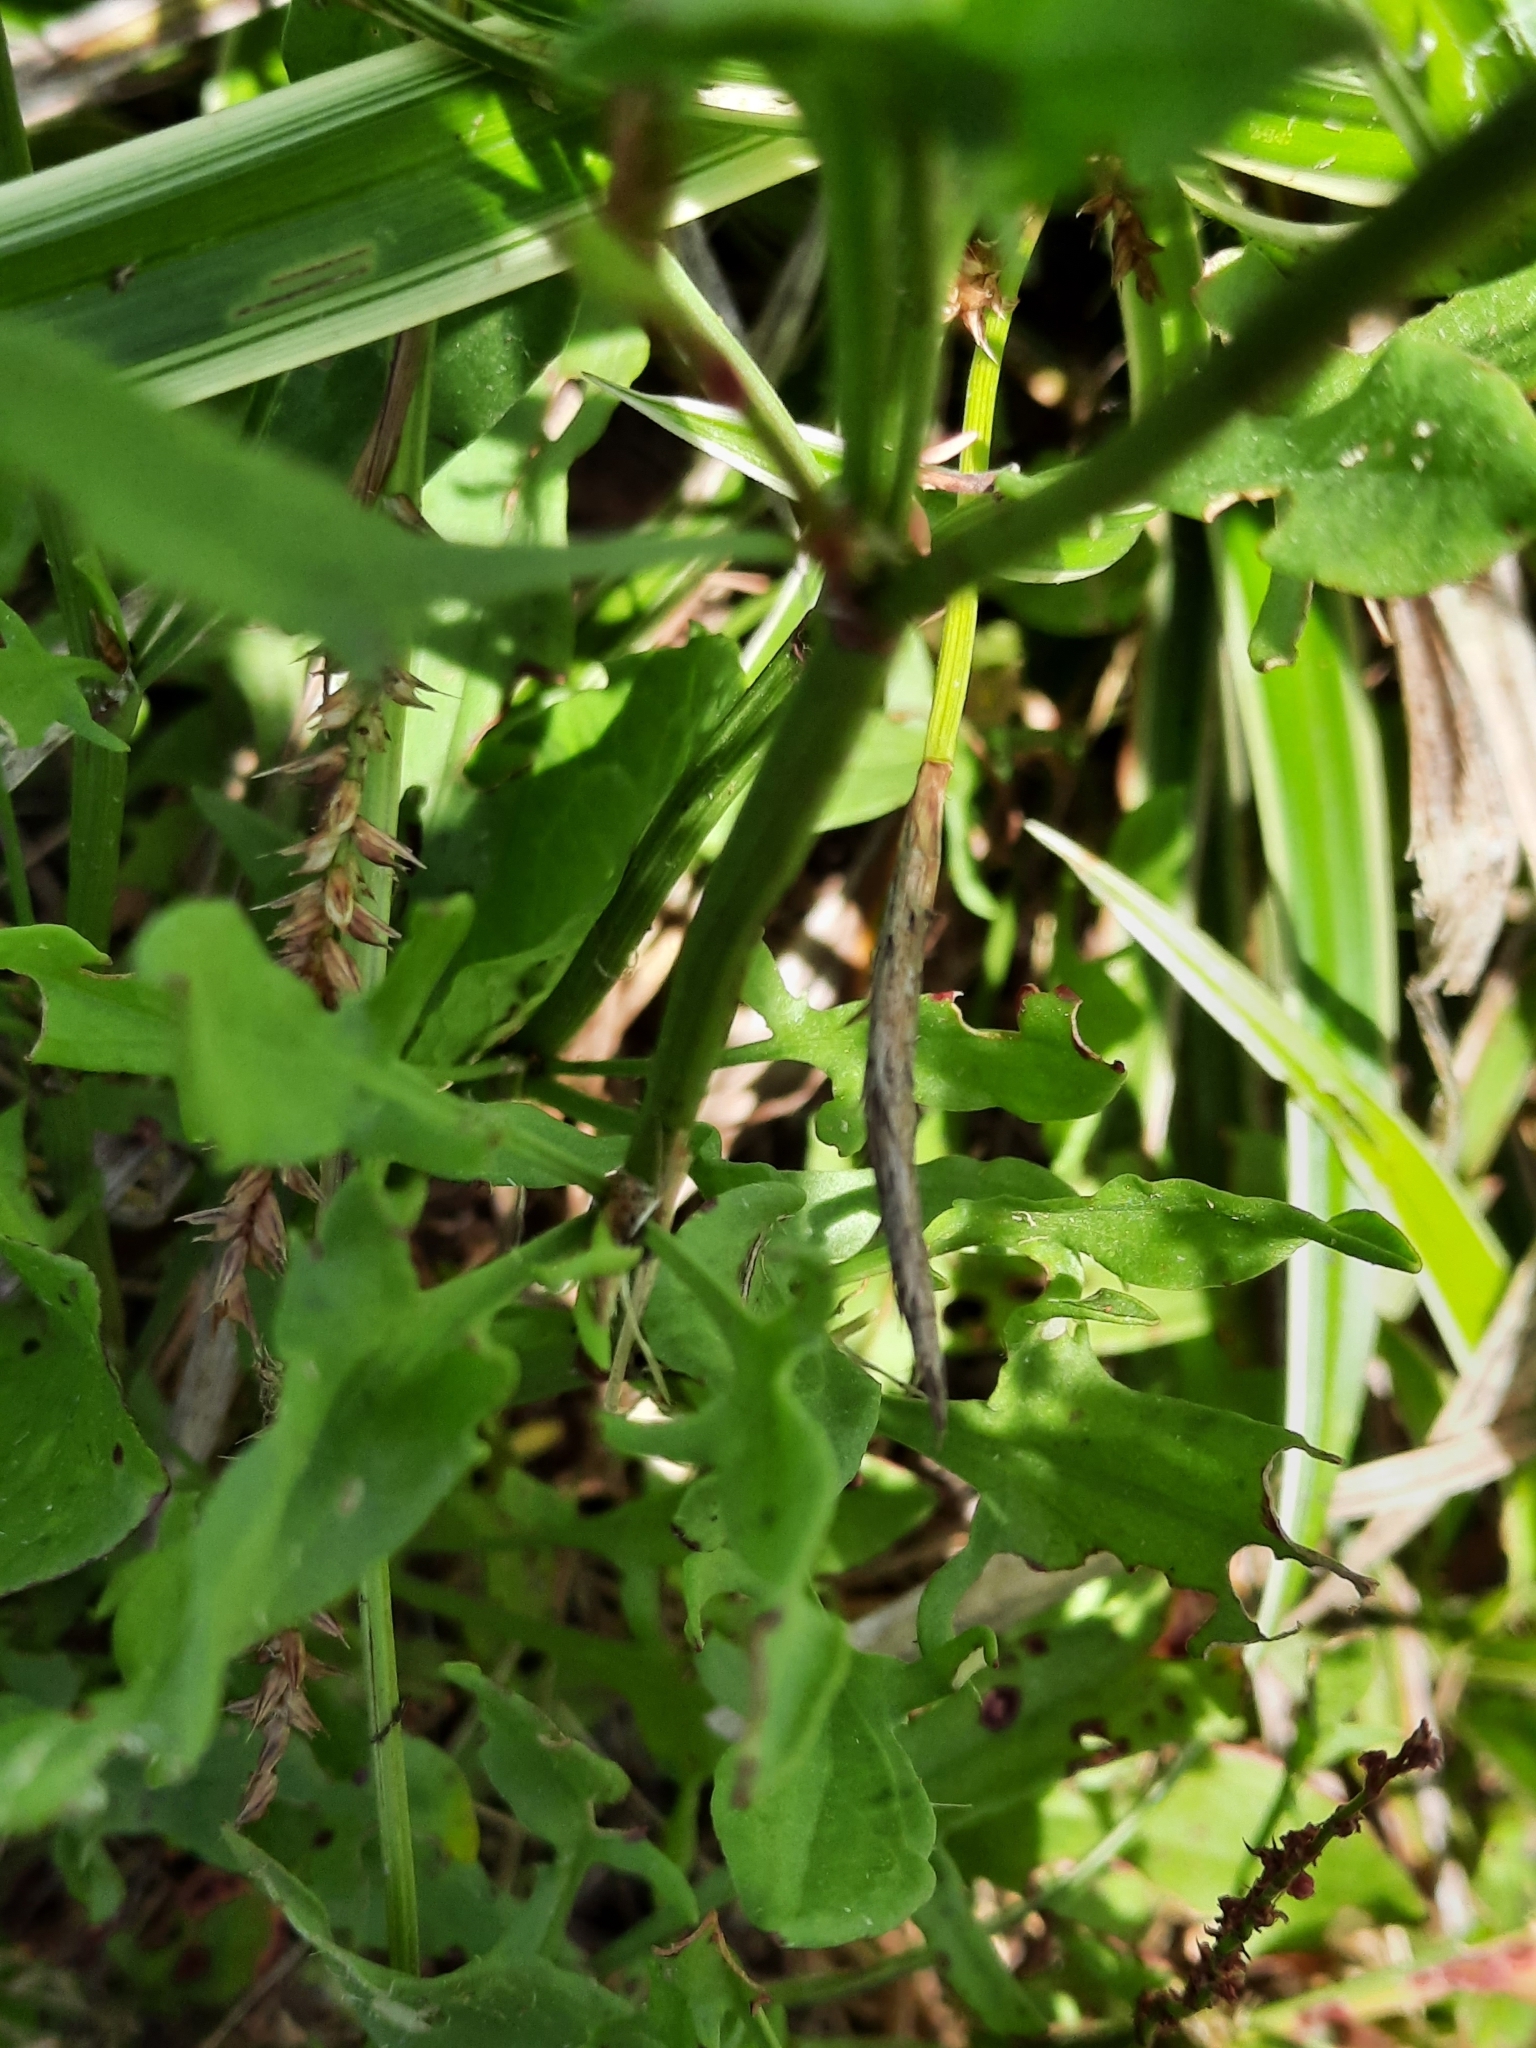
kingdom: Plantae
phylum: Tracheophyta
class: Magnoliopsida
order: Caryophyllales
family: Polygonaceae
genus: Rumex
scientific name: Rumex acetosella
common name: Common sheep sorrel
